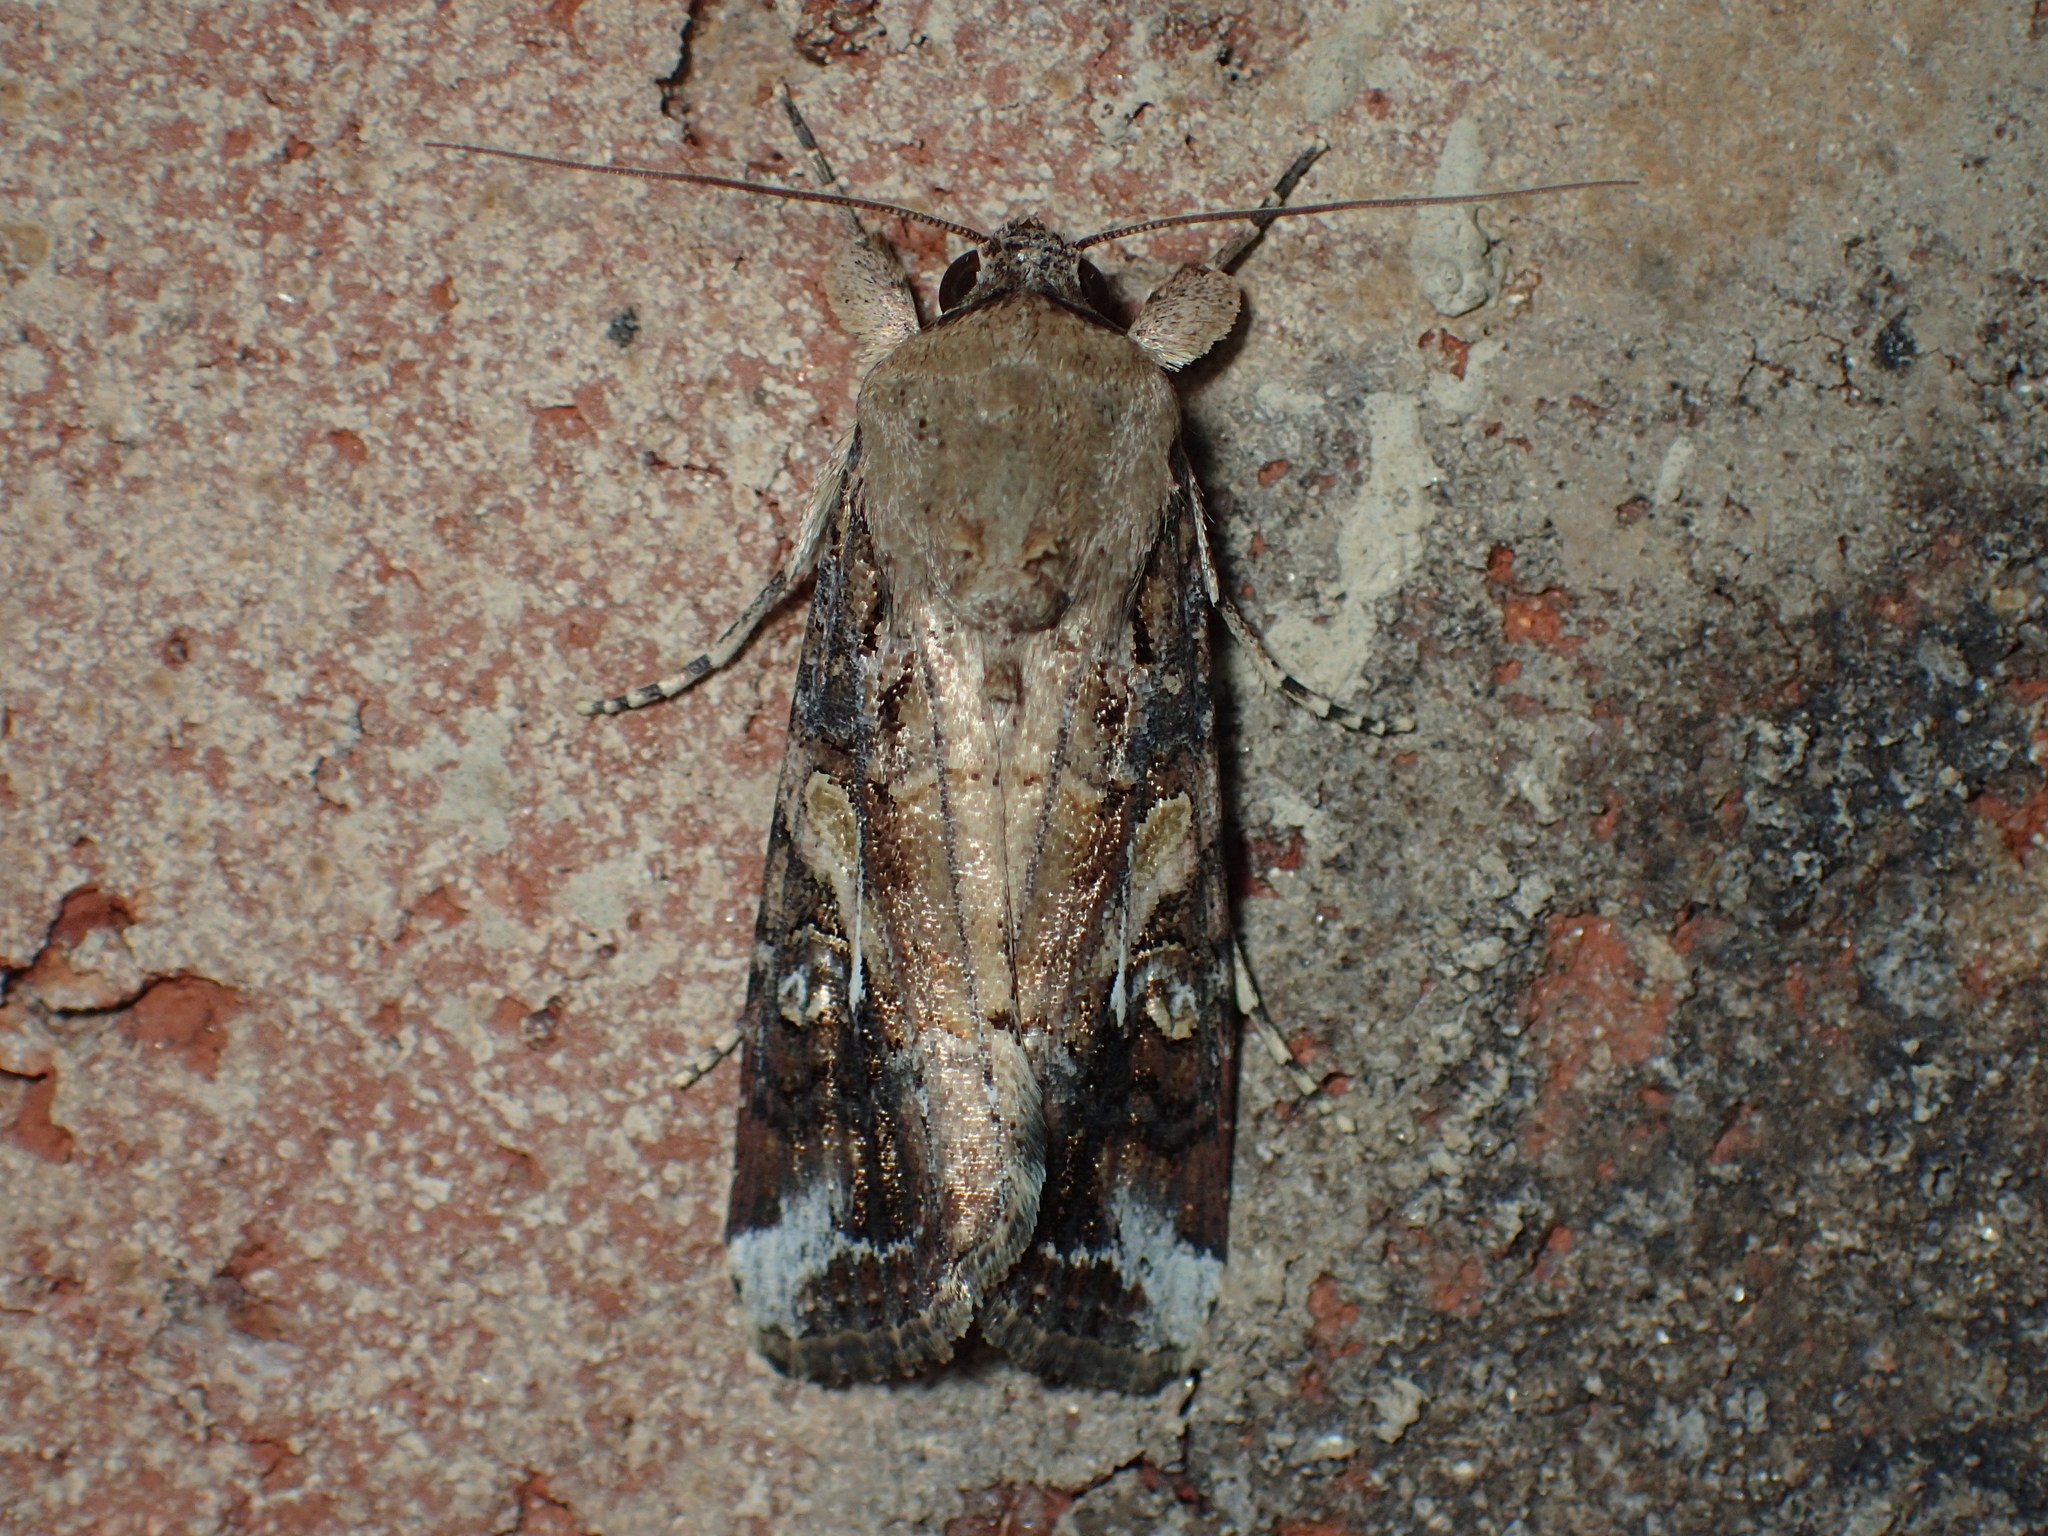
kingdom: Animalia
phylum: Arthropoda
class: Insecta
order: Lepidoptera
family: Noctuidae
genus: Spodoptera
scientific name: Spodoptera frugiperda
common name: Fall armyworm
